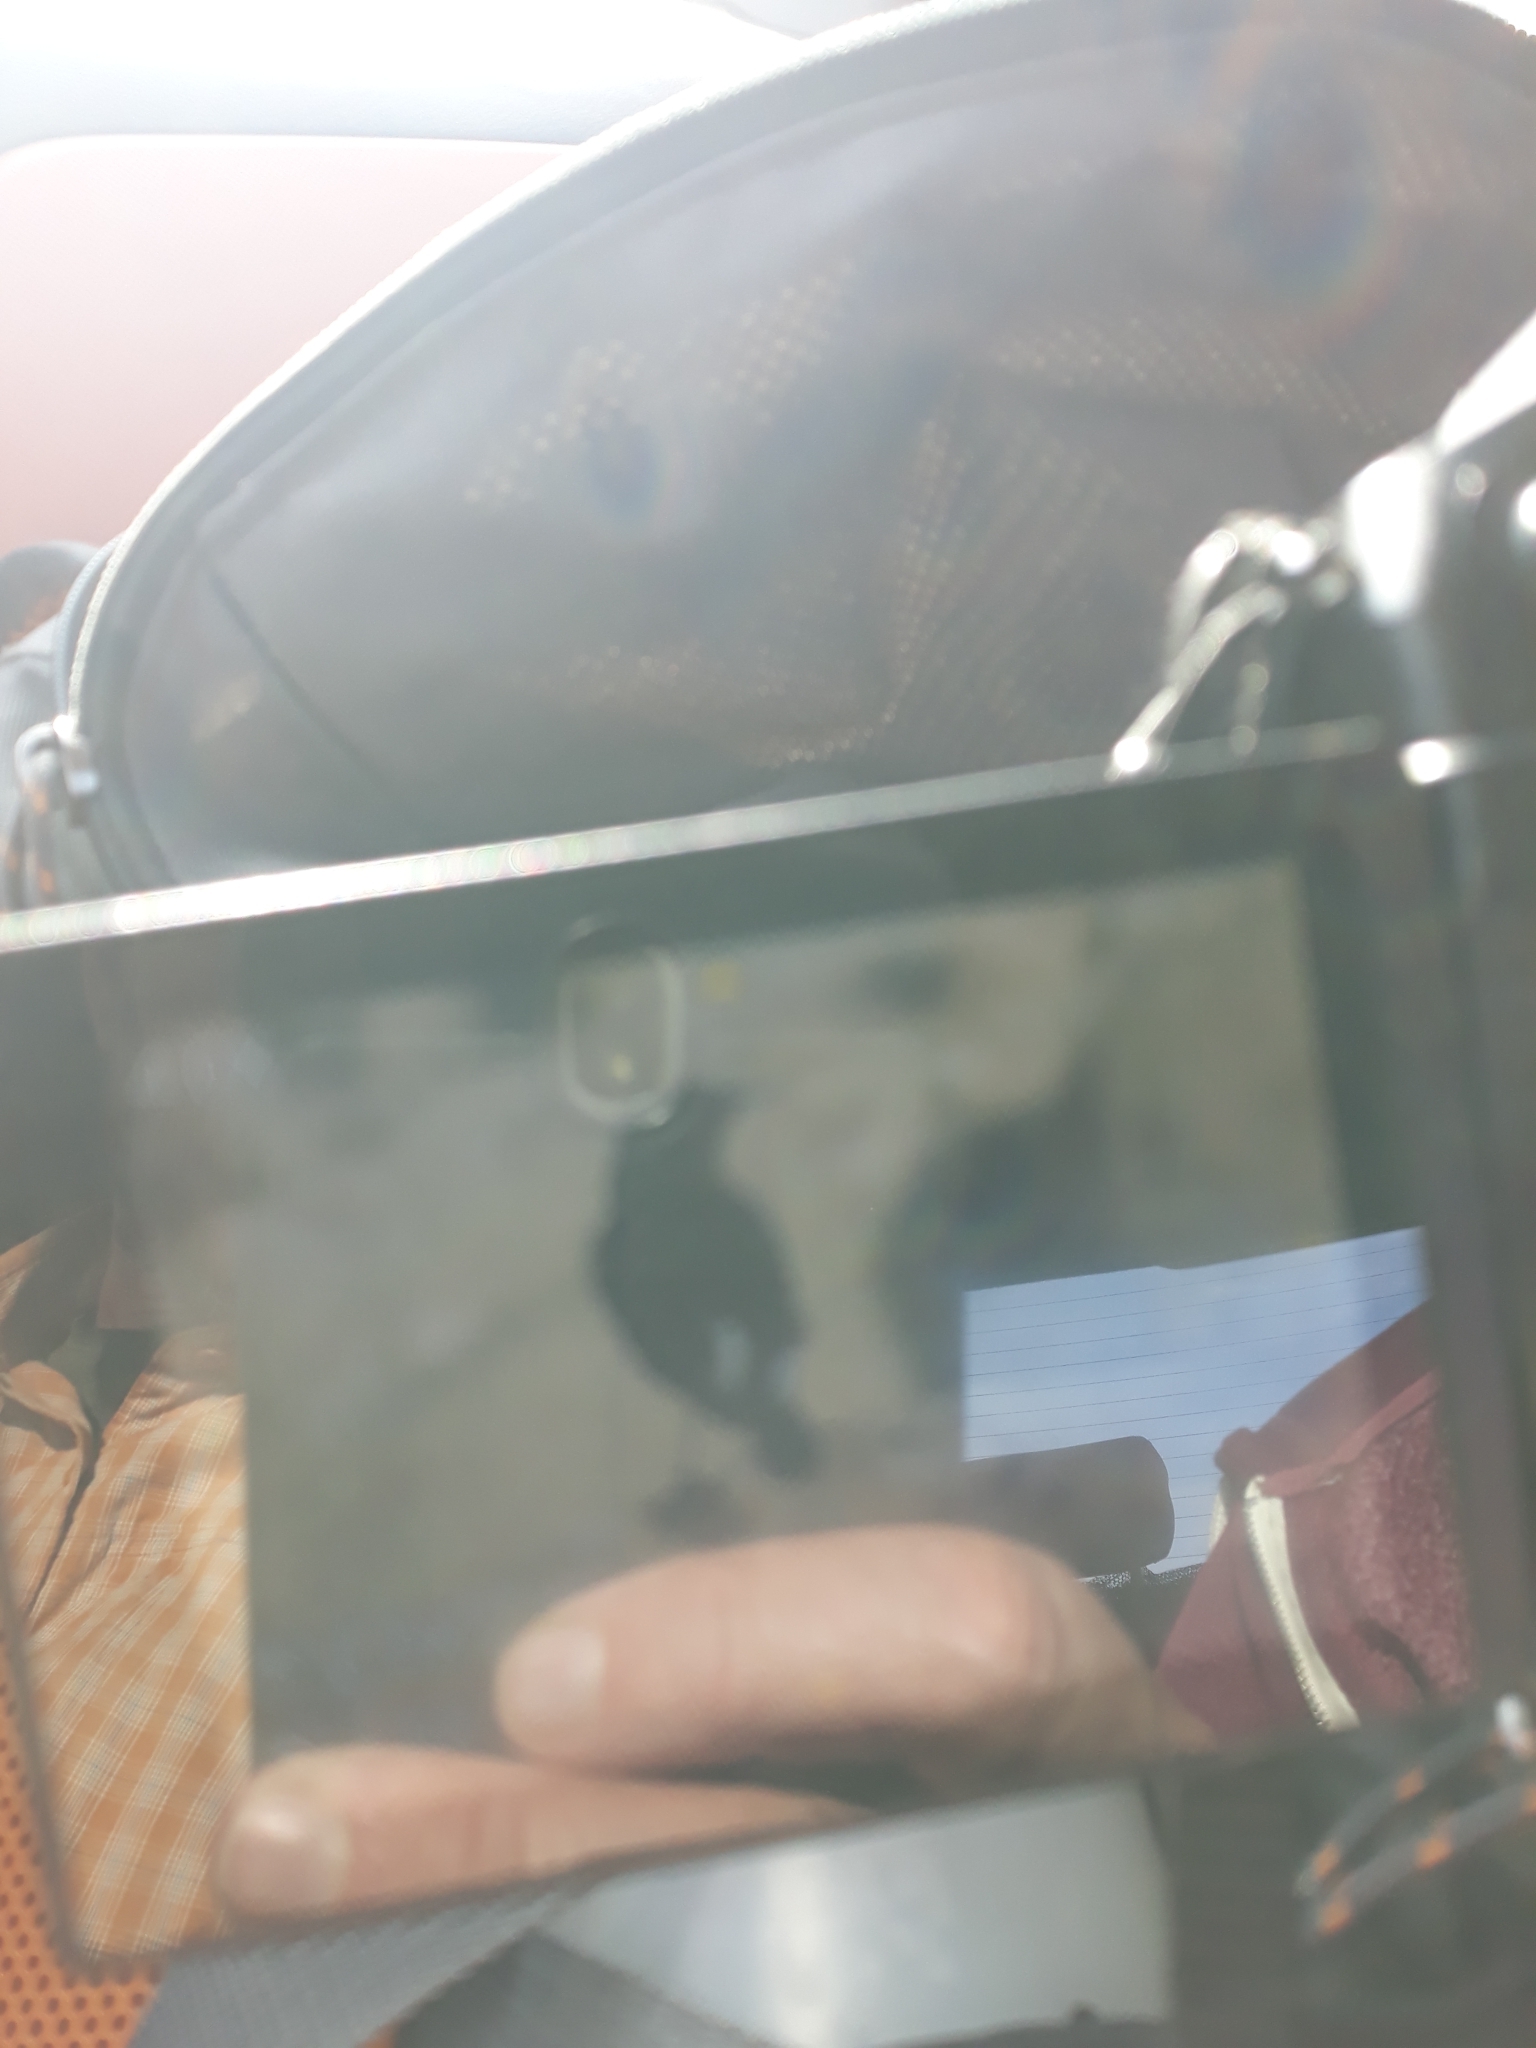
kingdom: Animalia
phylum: Chordata
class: Aves
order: Passeriformes
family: Muscicapidae
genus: Oenanthe
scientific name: Oenanthe leucura
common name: Black wheatear
